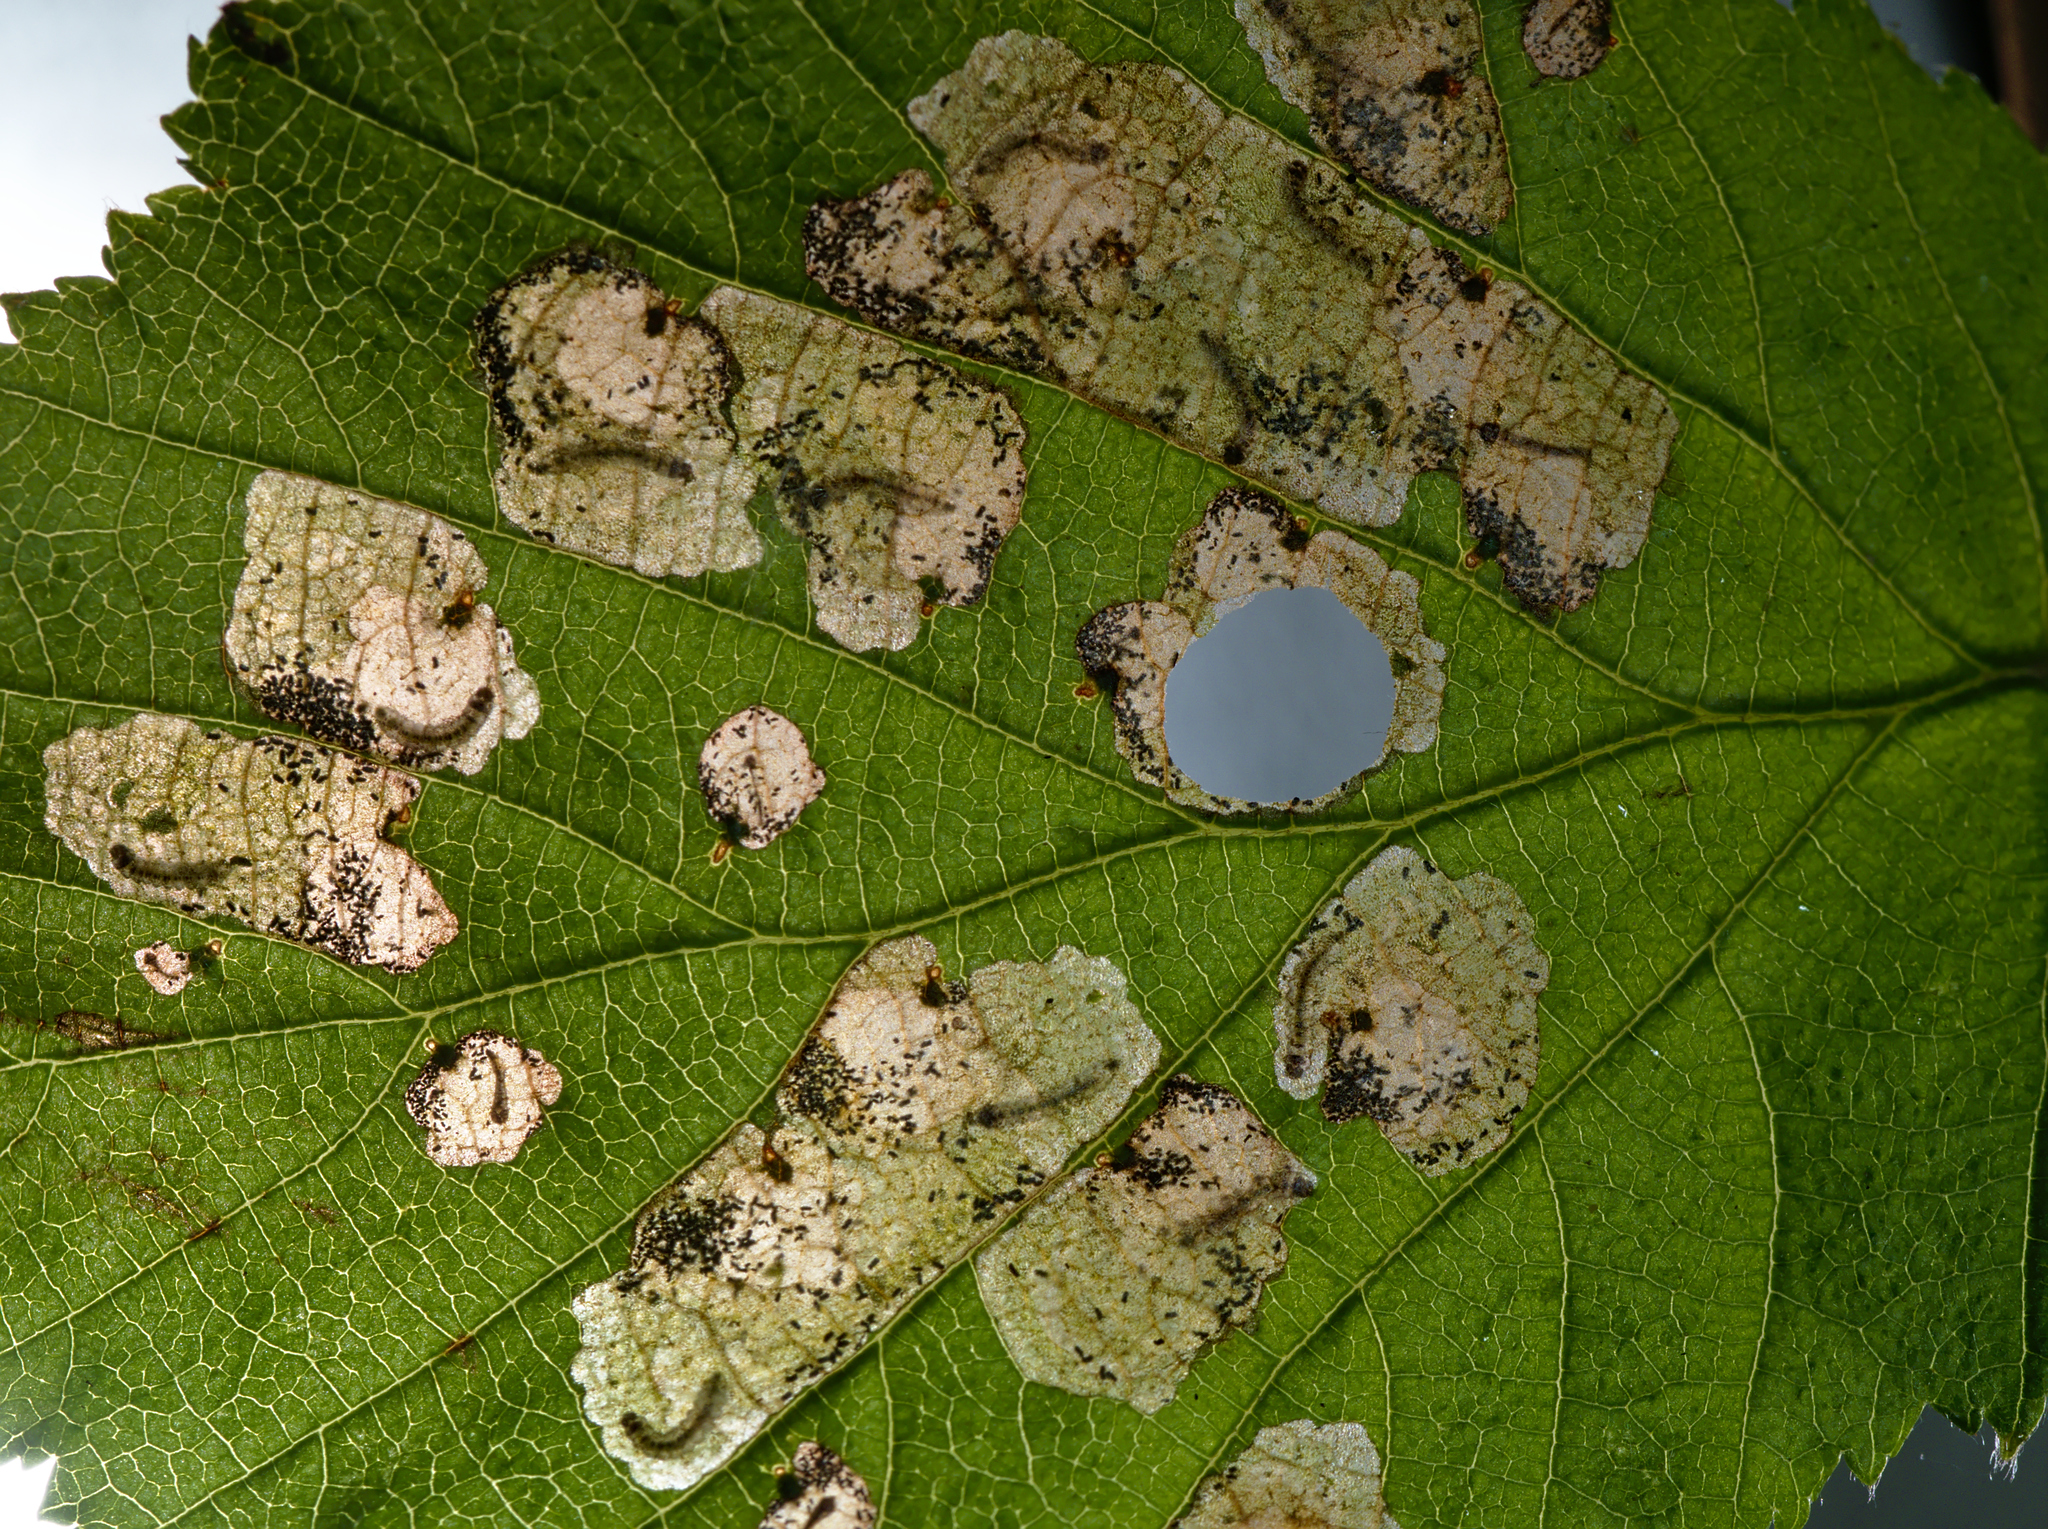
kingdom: Animalia
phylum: Arthropoda
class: Insecta
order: Lepidoptera
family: Incurvariidae
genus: Incurvaria
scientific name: Incurvaria pectinea
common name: Pale feathered leaf-cutter
